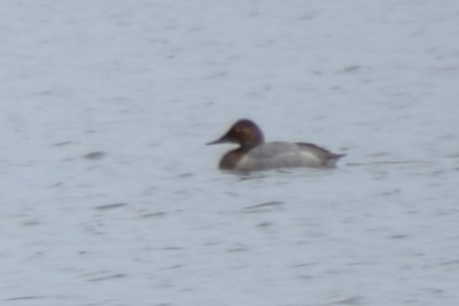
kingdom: Animalia
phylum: Chordata
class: Aves
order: Anseriformes
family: Anatidae
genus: Aythya
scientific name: Aythya valisineria
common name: Canvasback
